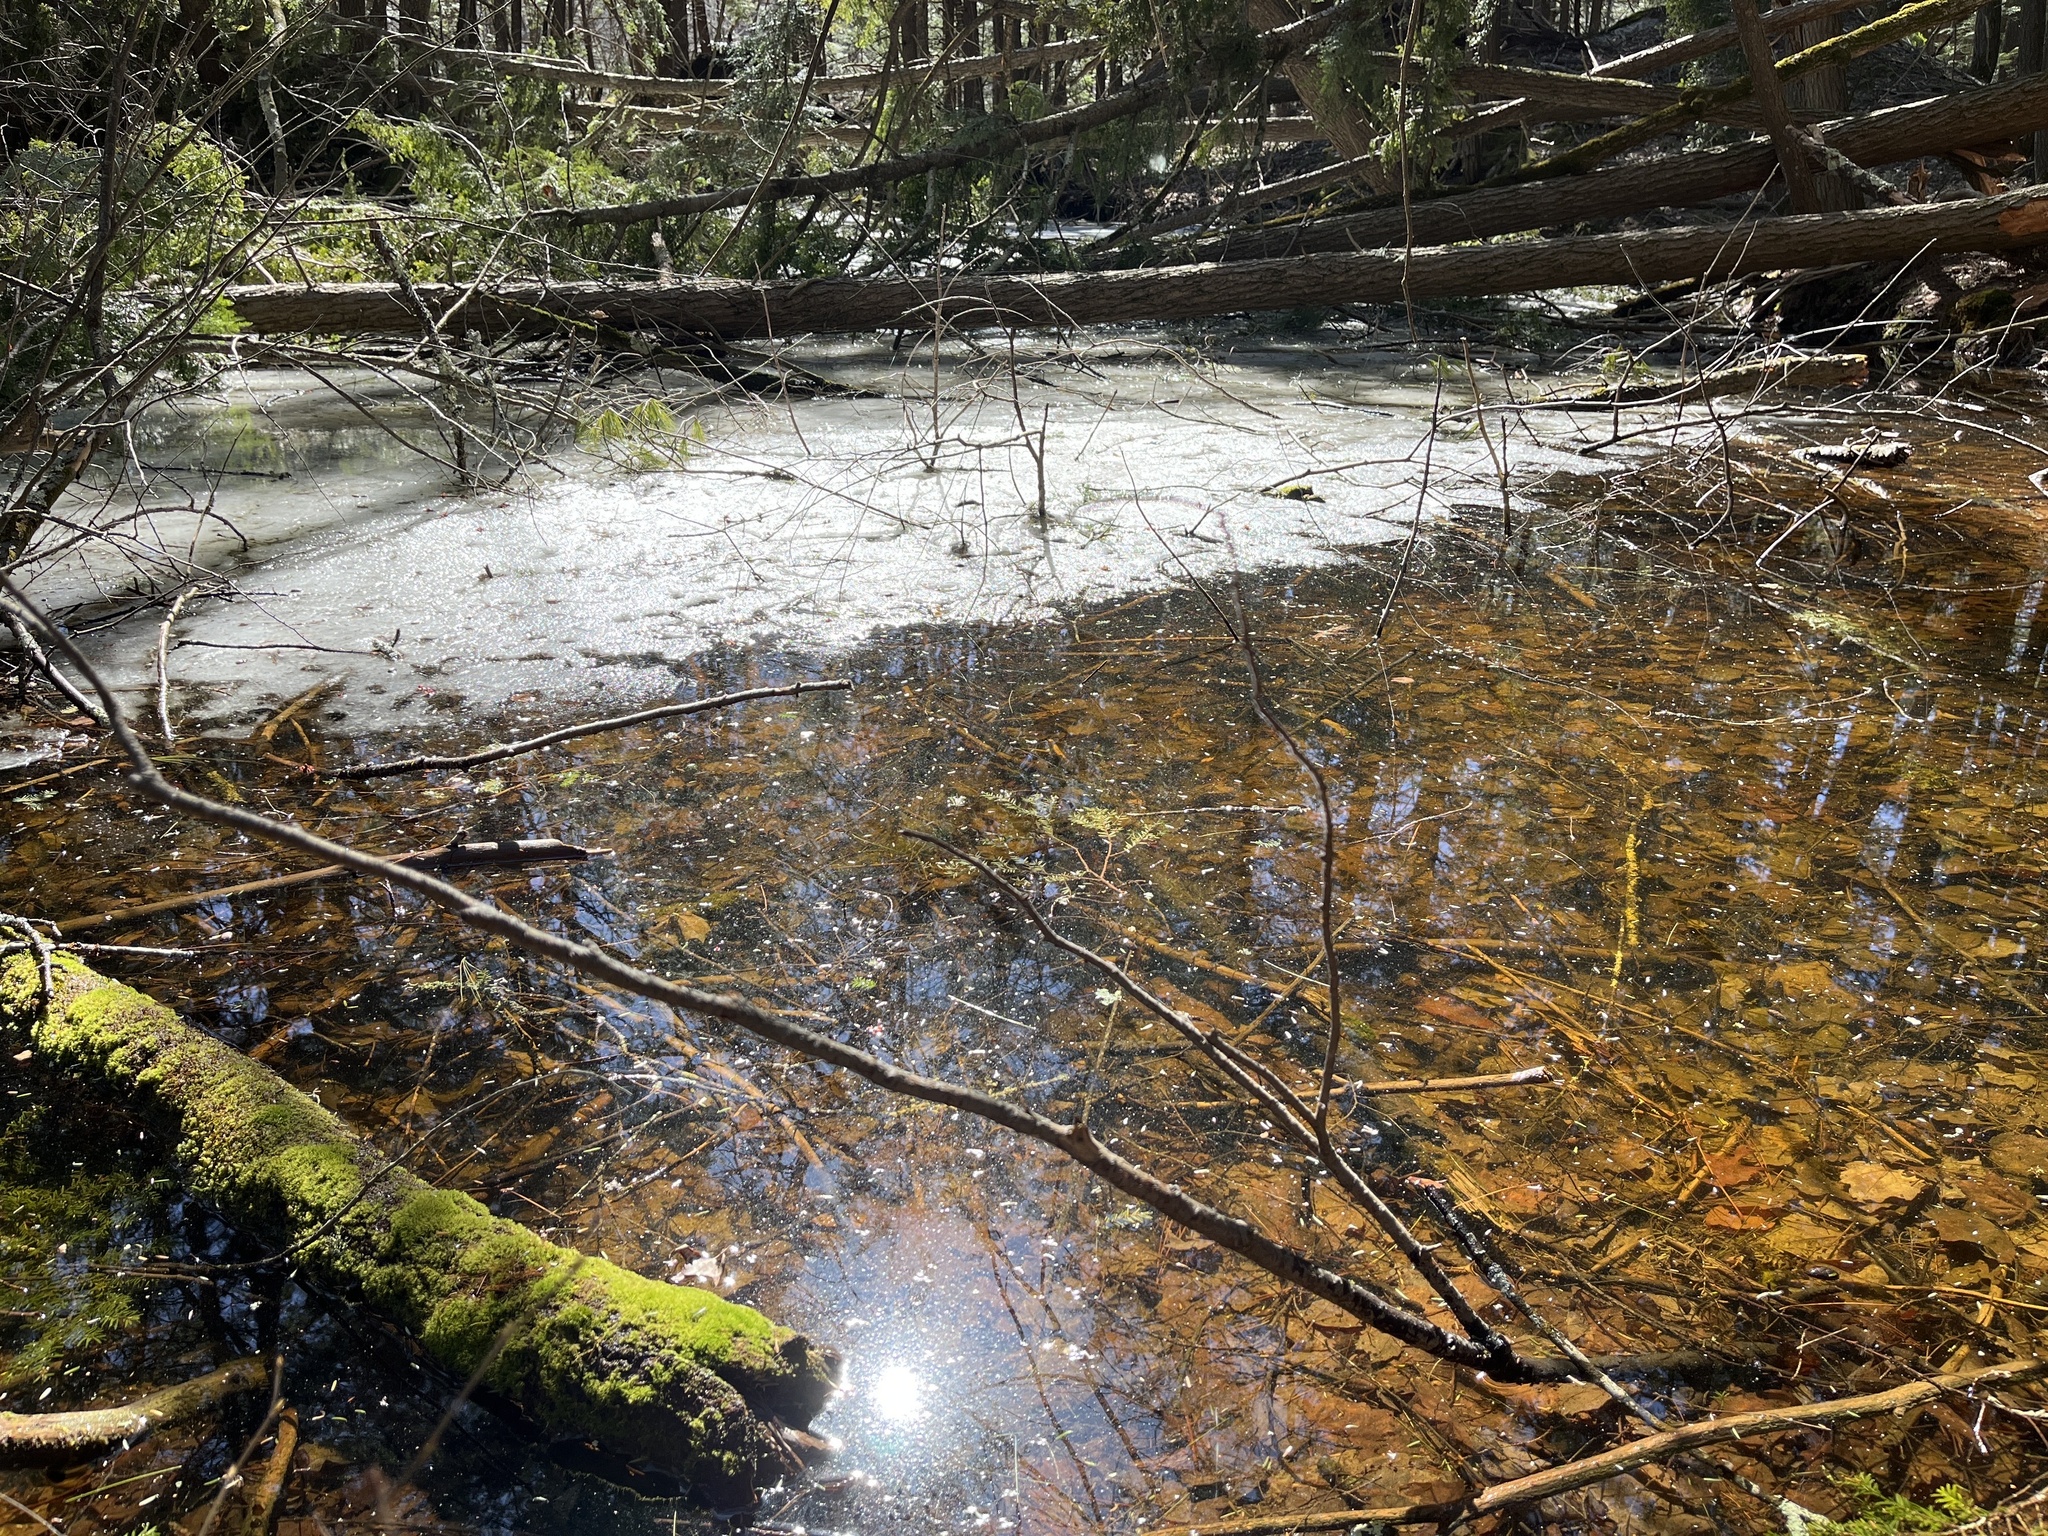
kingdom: Animalia
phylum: Chordata
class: Amphibia
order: Anura
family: Ranidae
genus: Lithobates
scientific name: Lithobates sylvaticus
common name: Wood frog
